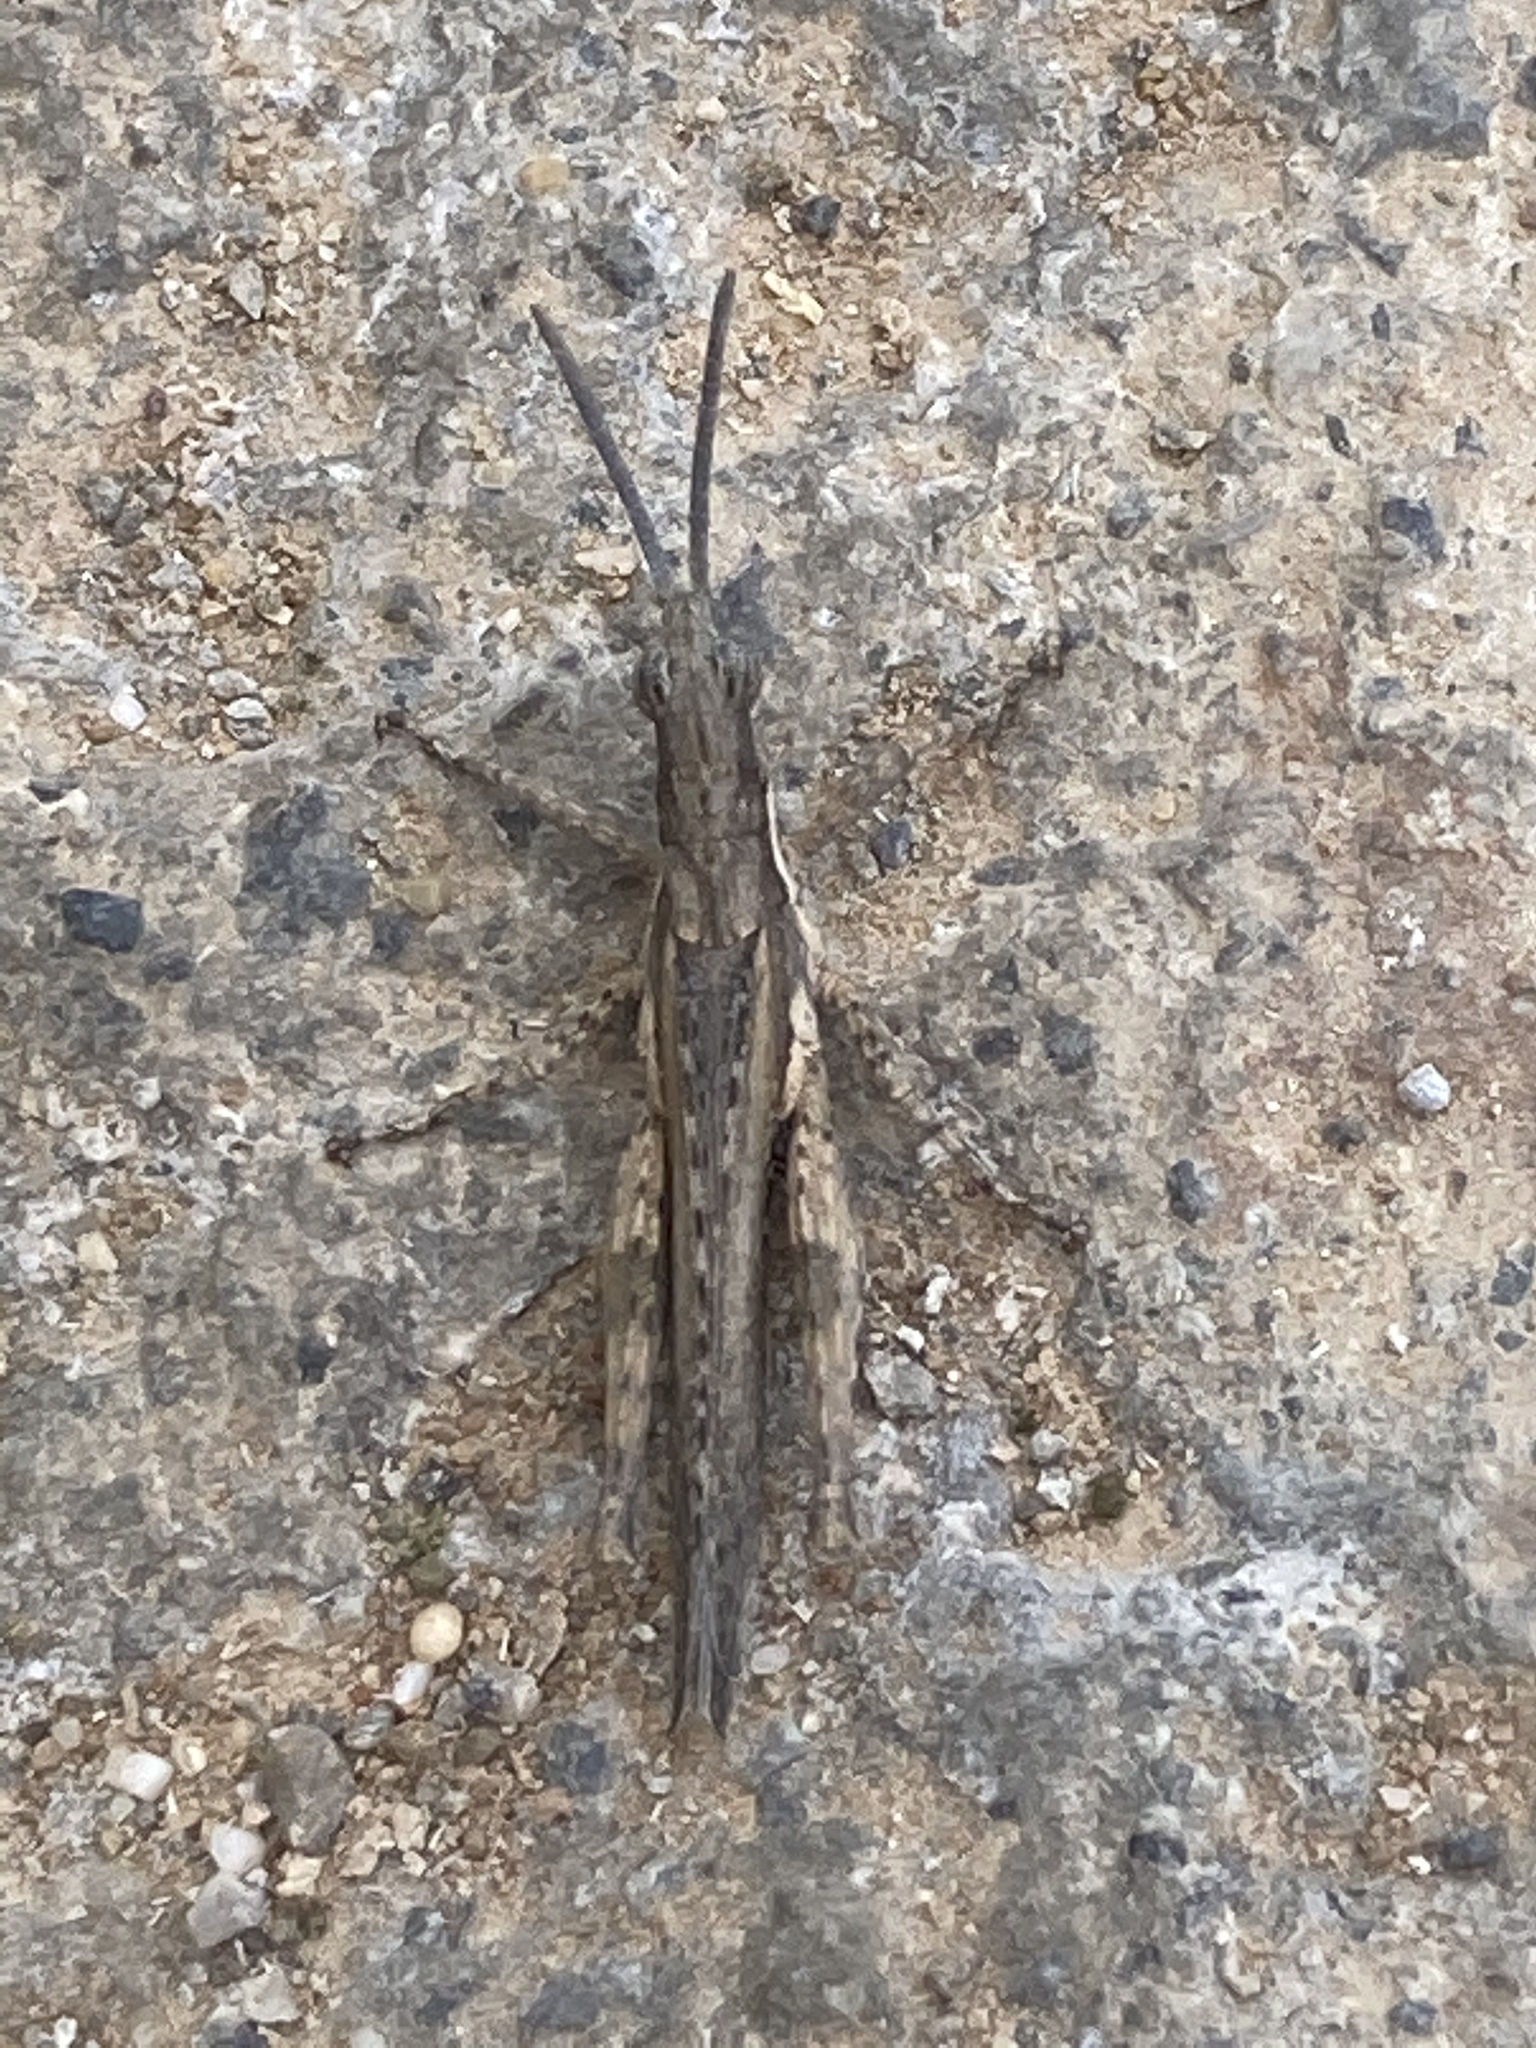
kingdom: Animalia
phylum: Arthropoda
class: Insecta
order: Orthoptera
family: Pyrgomorphidae
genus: Pyrgomorpha
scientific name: Pyrgomorpha conica
